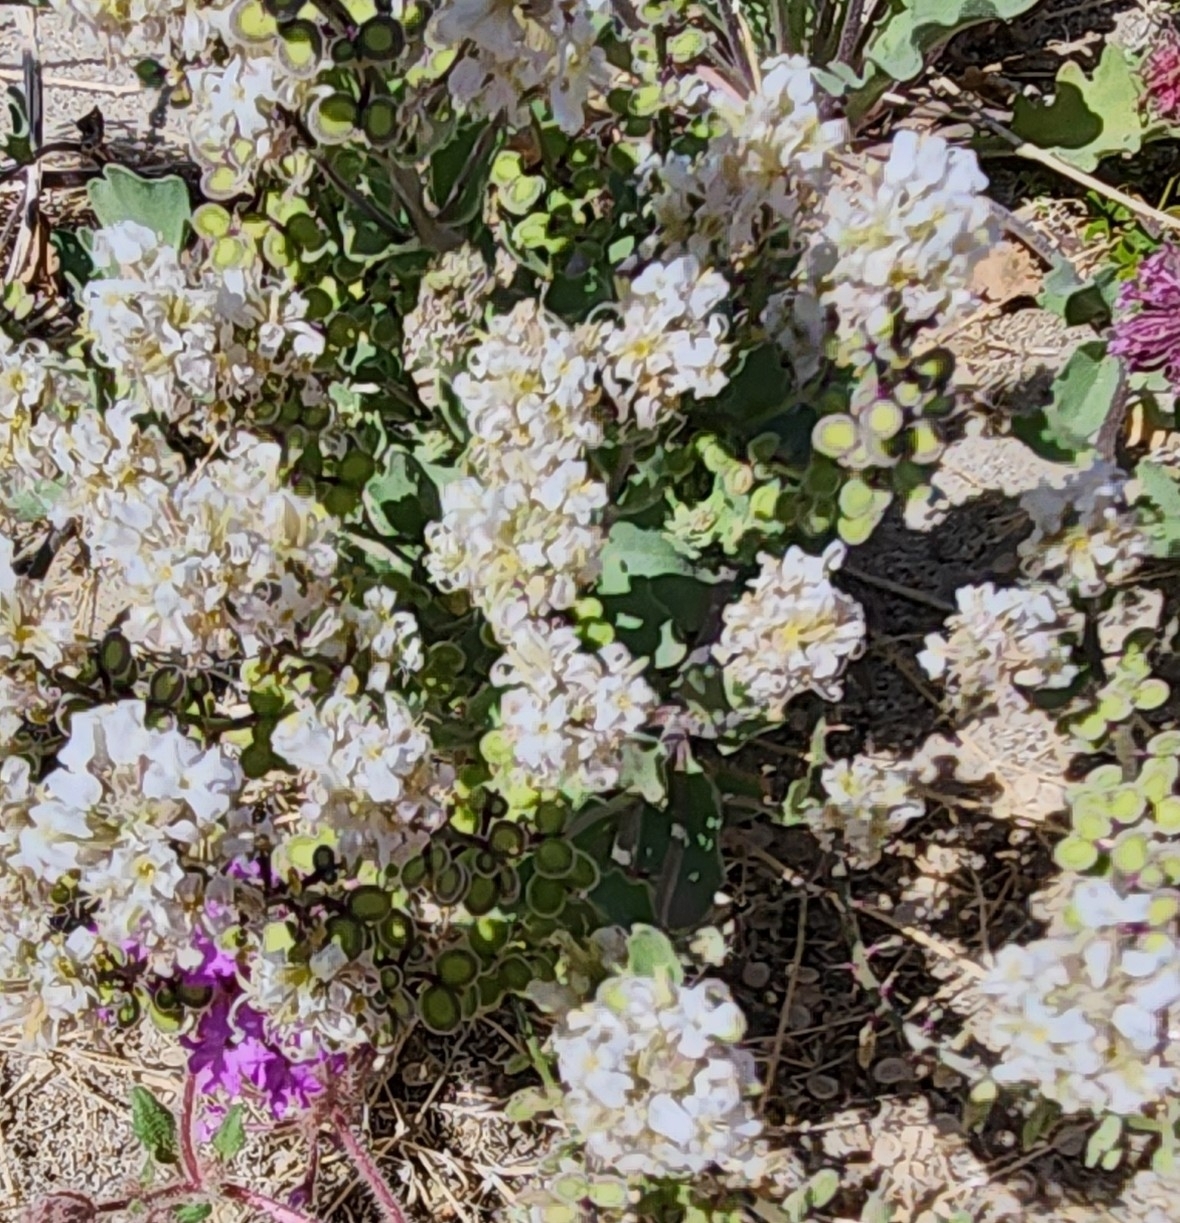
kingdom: Plantae
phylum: Tracheophyta
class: Magnoliopsida
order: Brassicales
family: Brassicaceae
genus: Dithyrea
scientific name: Dithyrea californica
